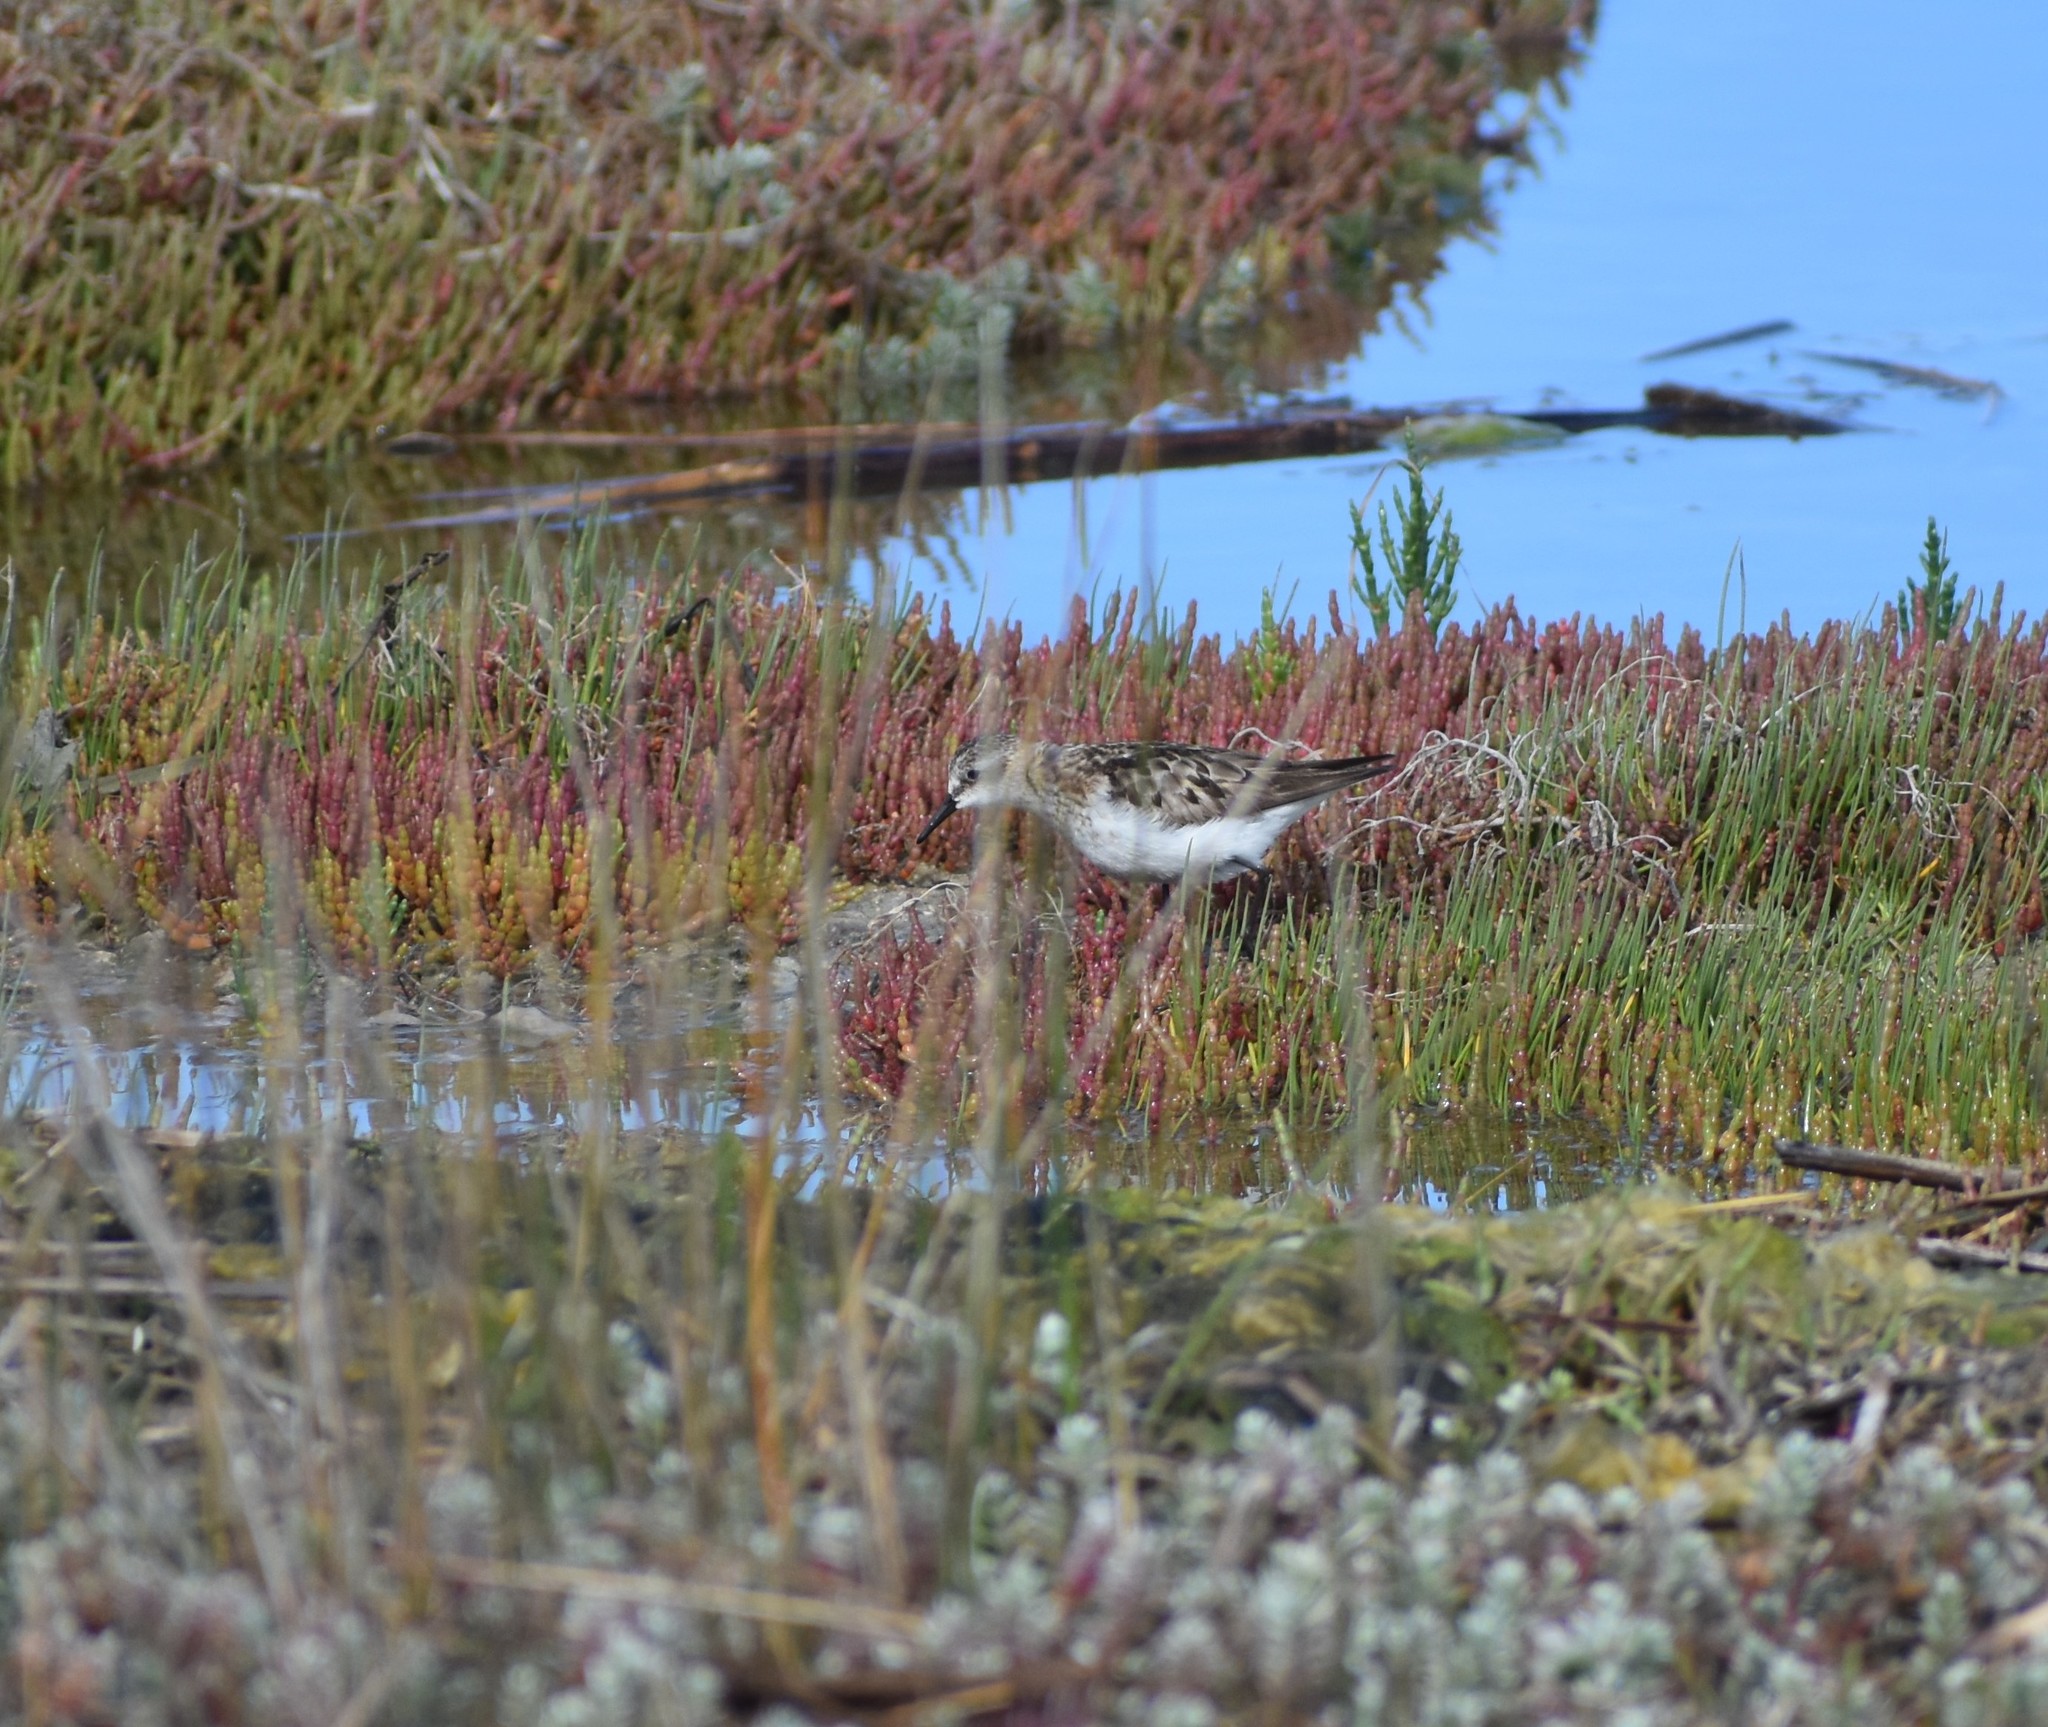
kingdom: Animalia
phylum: Chordata
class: Aves
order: Charadriiformes
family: Scolopacidae
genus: Calidris
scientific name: Calidris minuta
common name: Little stint
